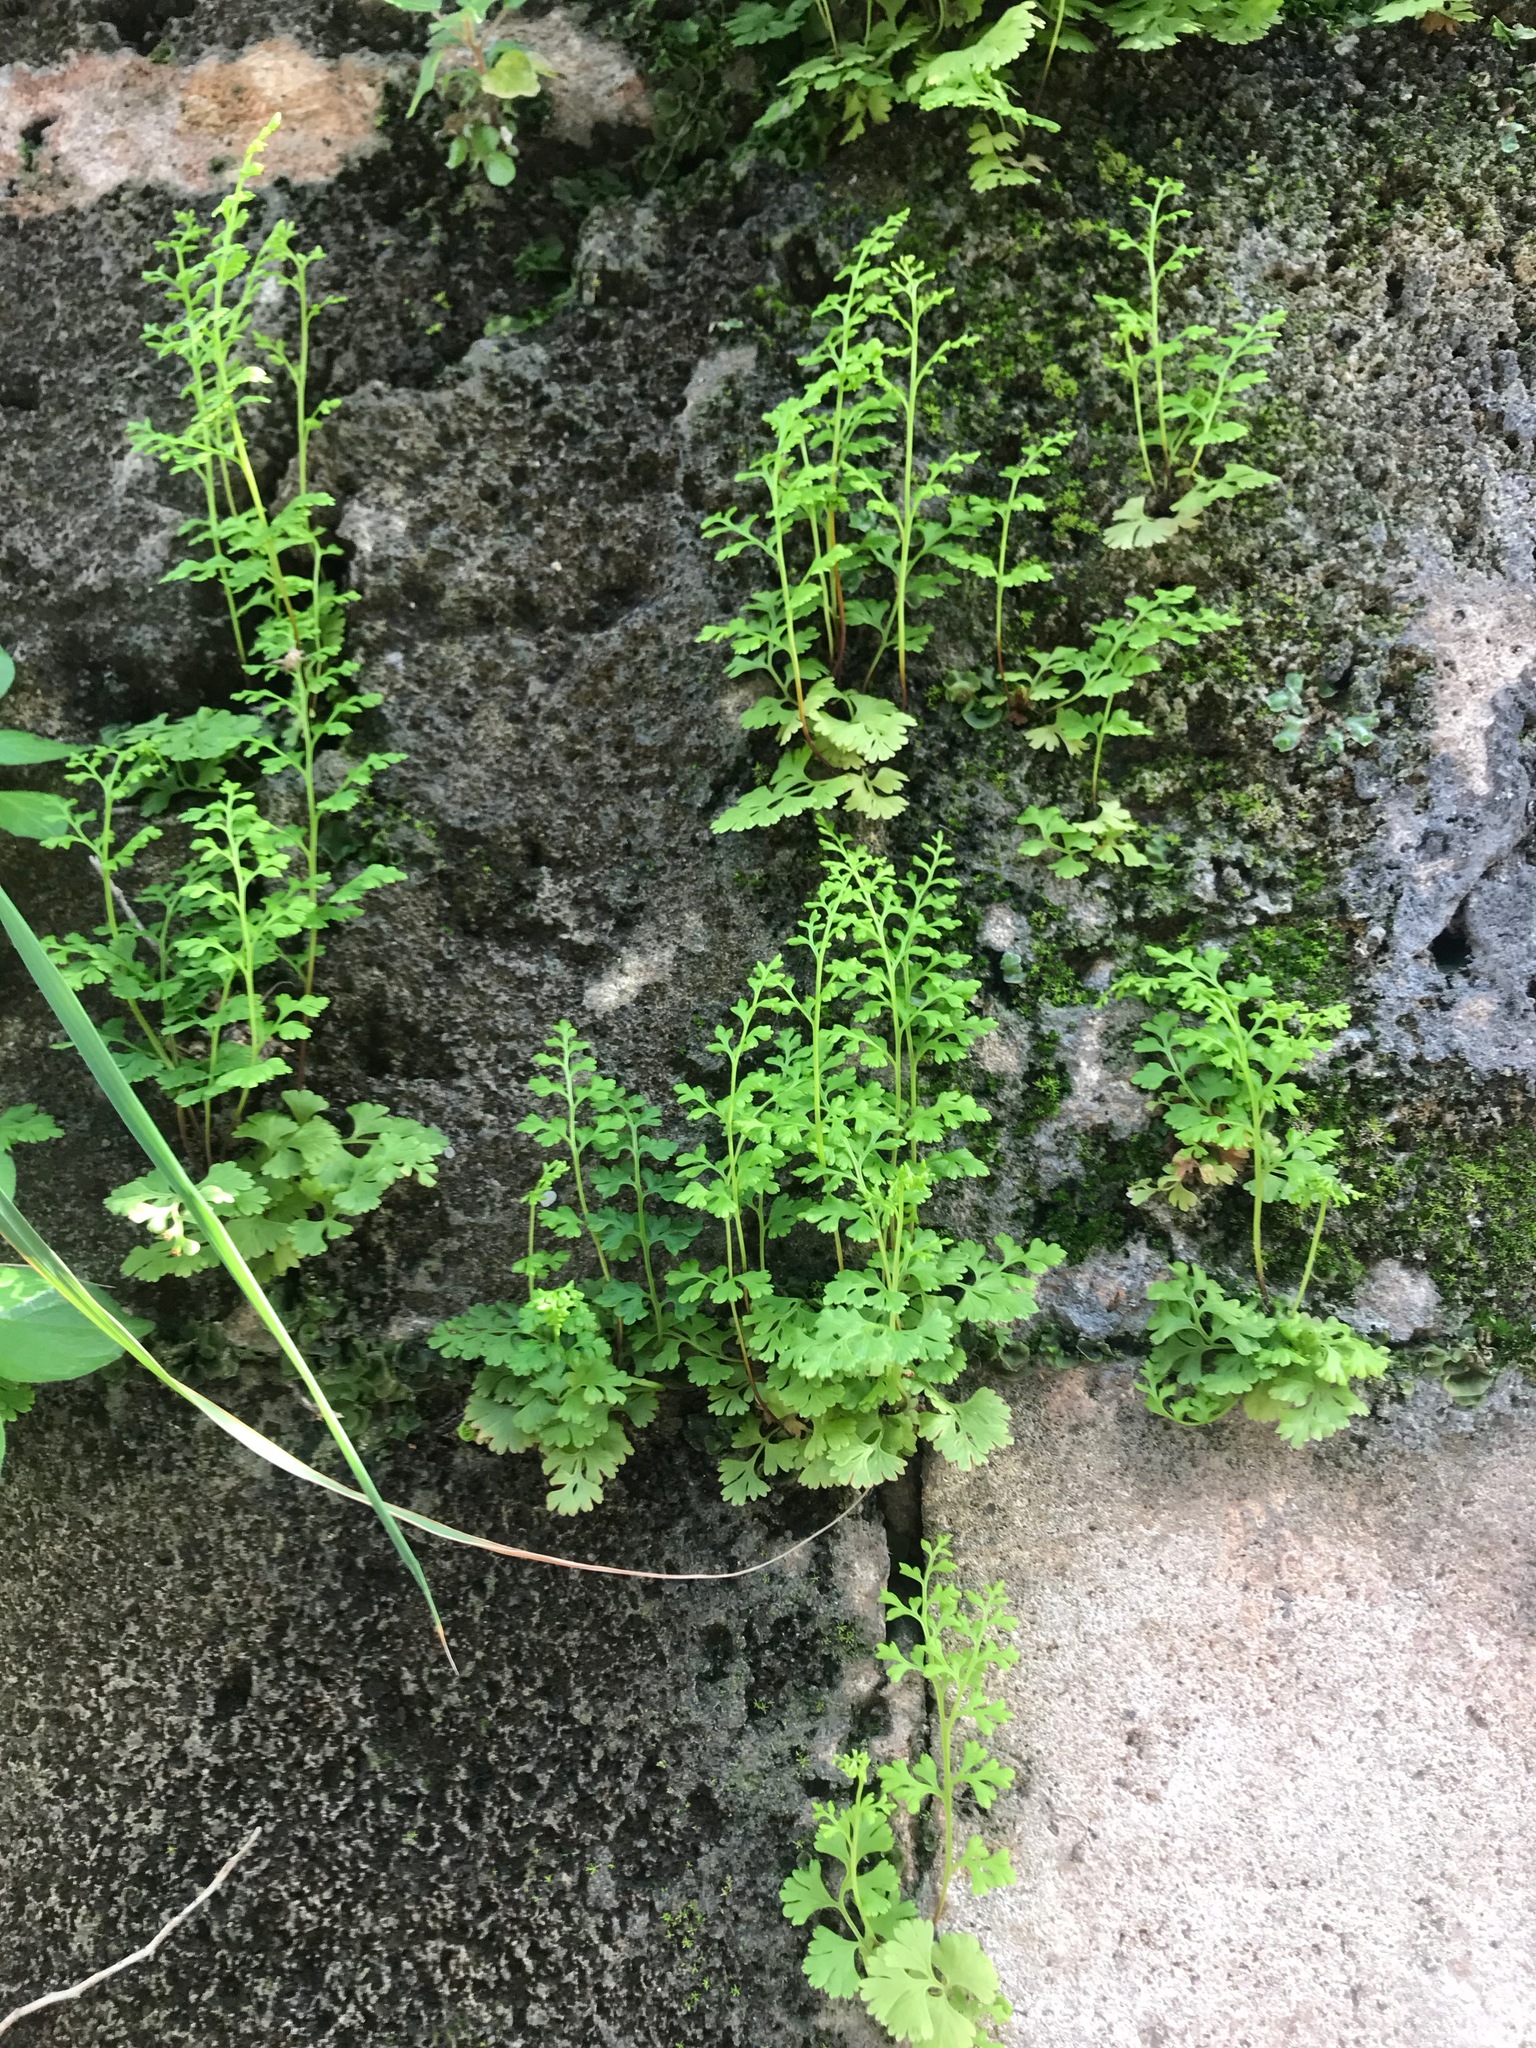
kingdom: Plantae
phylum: Tracheophyta
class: Polypodiopsida
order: Polypodiales
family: Pteridaceae
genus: Anogramma
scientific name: Anogramma leptophylla
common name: Jersey fern
